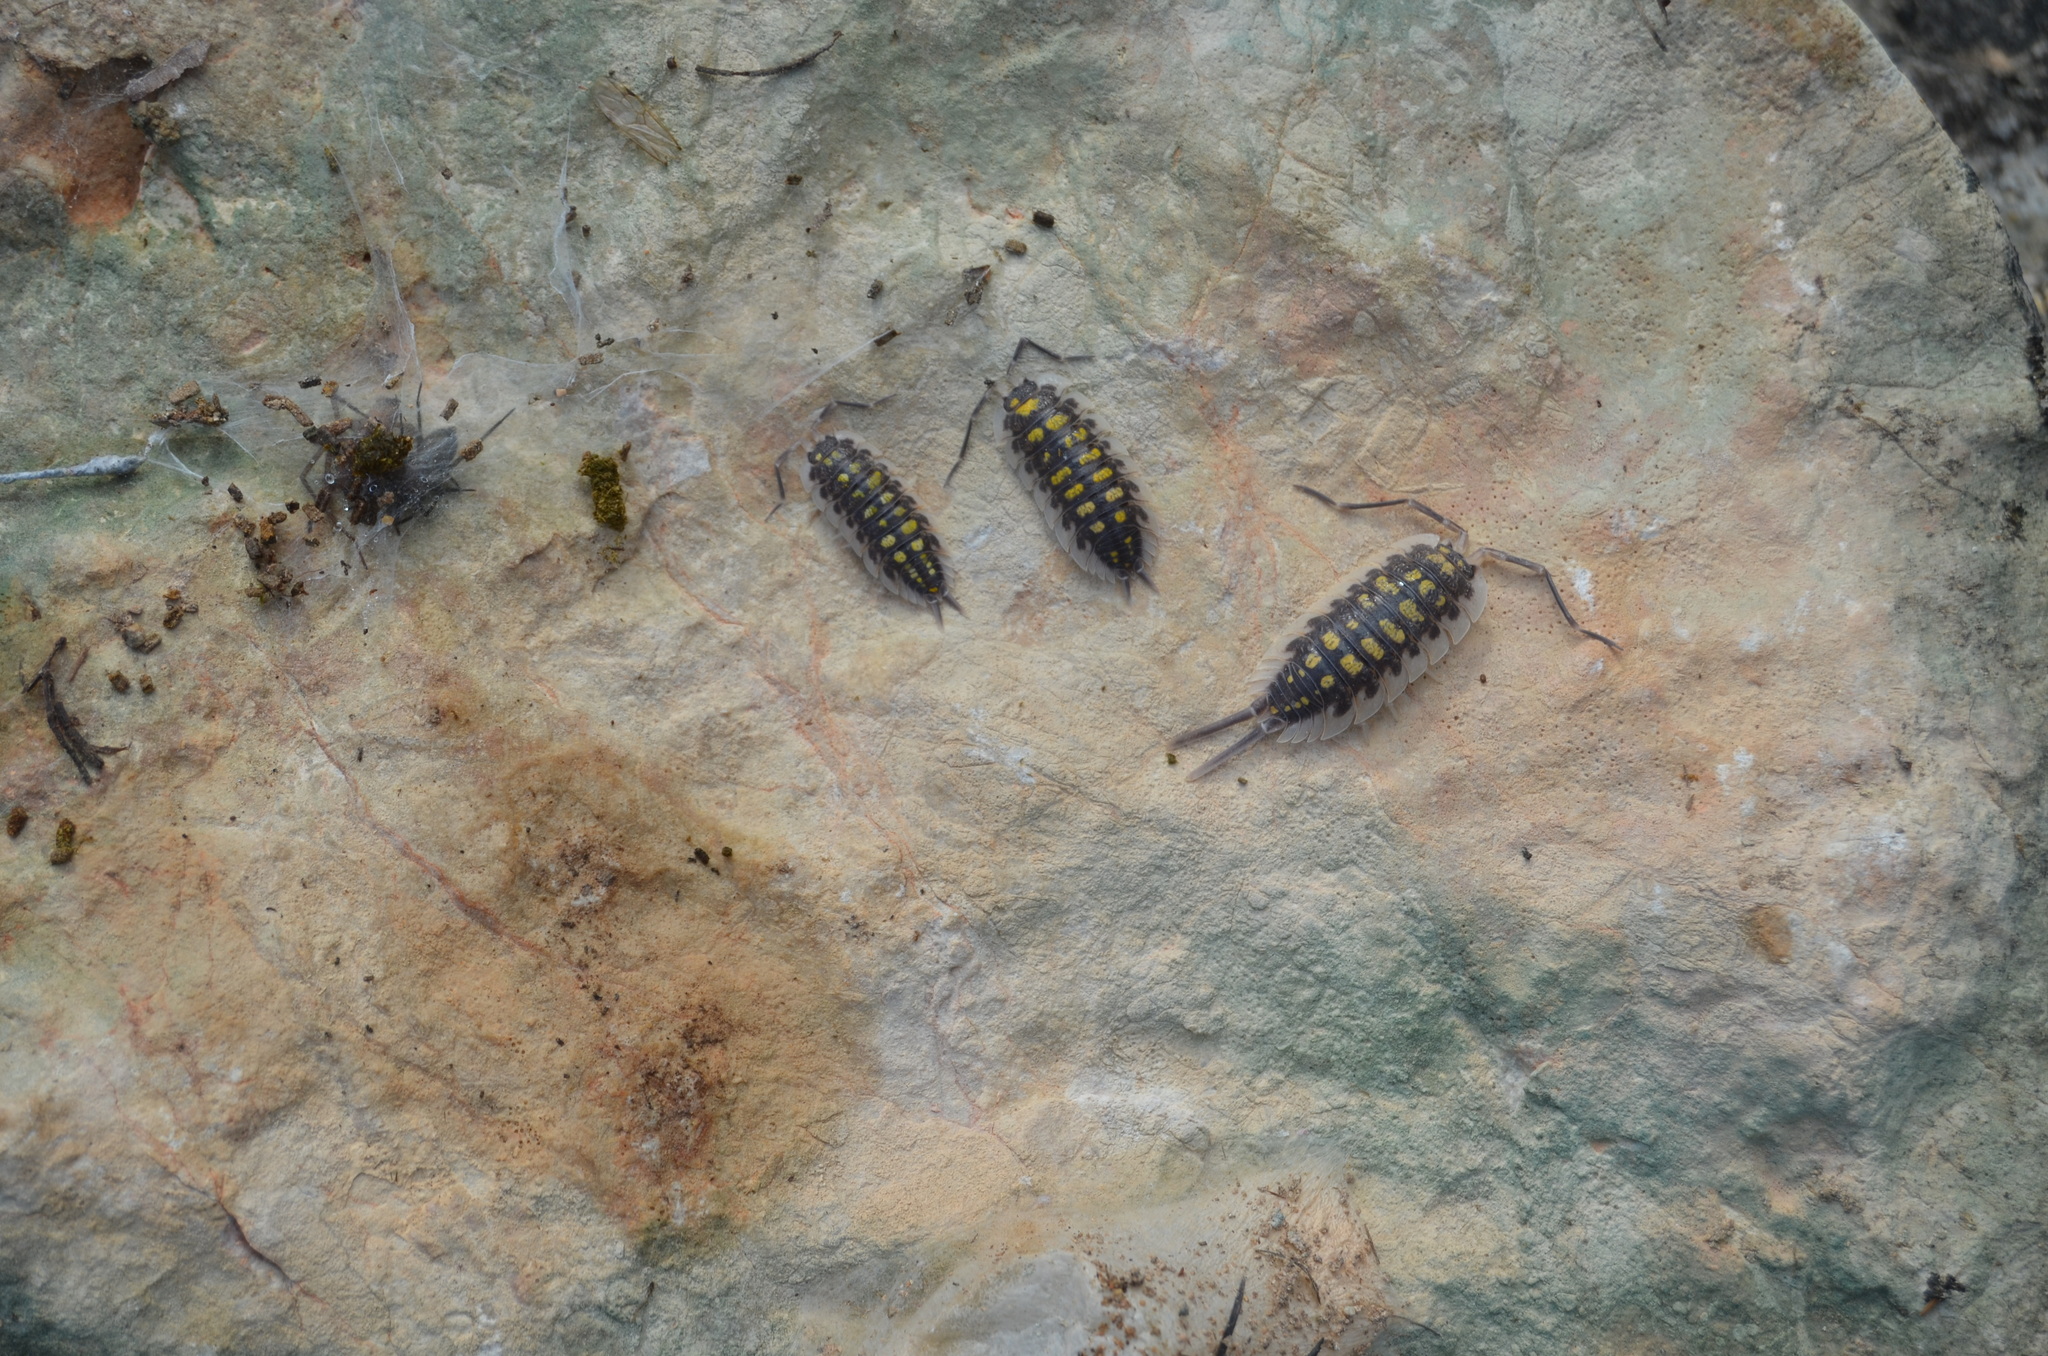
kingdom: Animalia
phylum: Arthropoda
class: Malacostraca
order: Isopoda
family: Porcellionidae
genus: Porcellio
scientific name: Porcellio haasi
